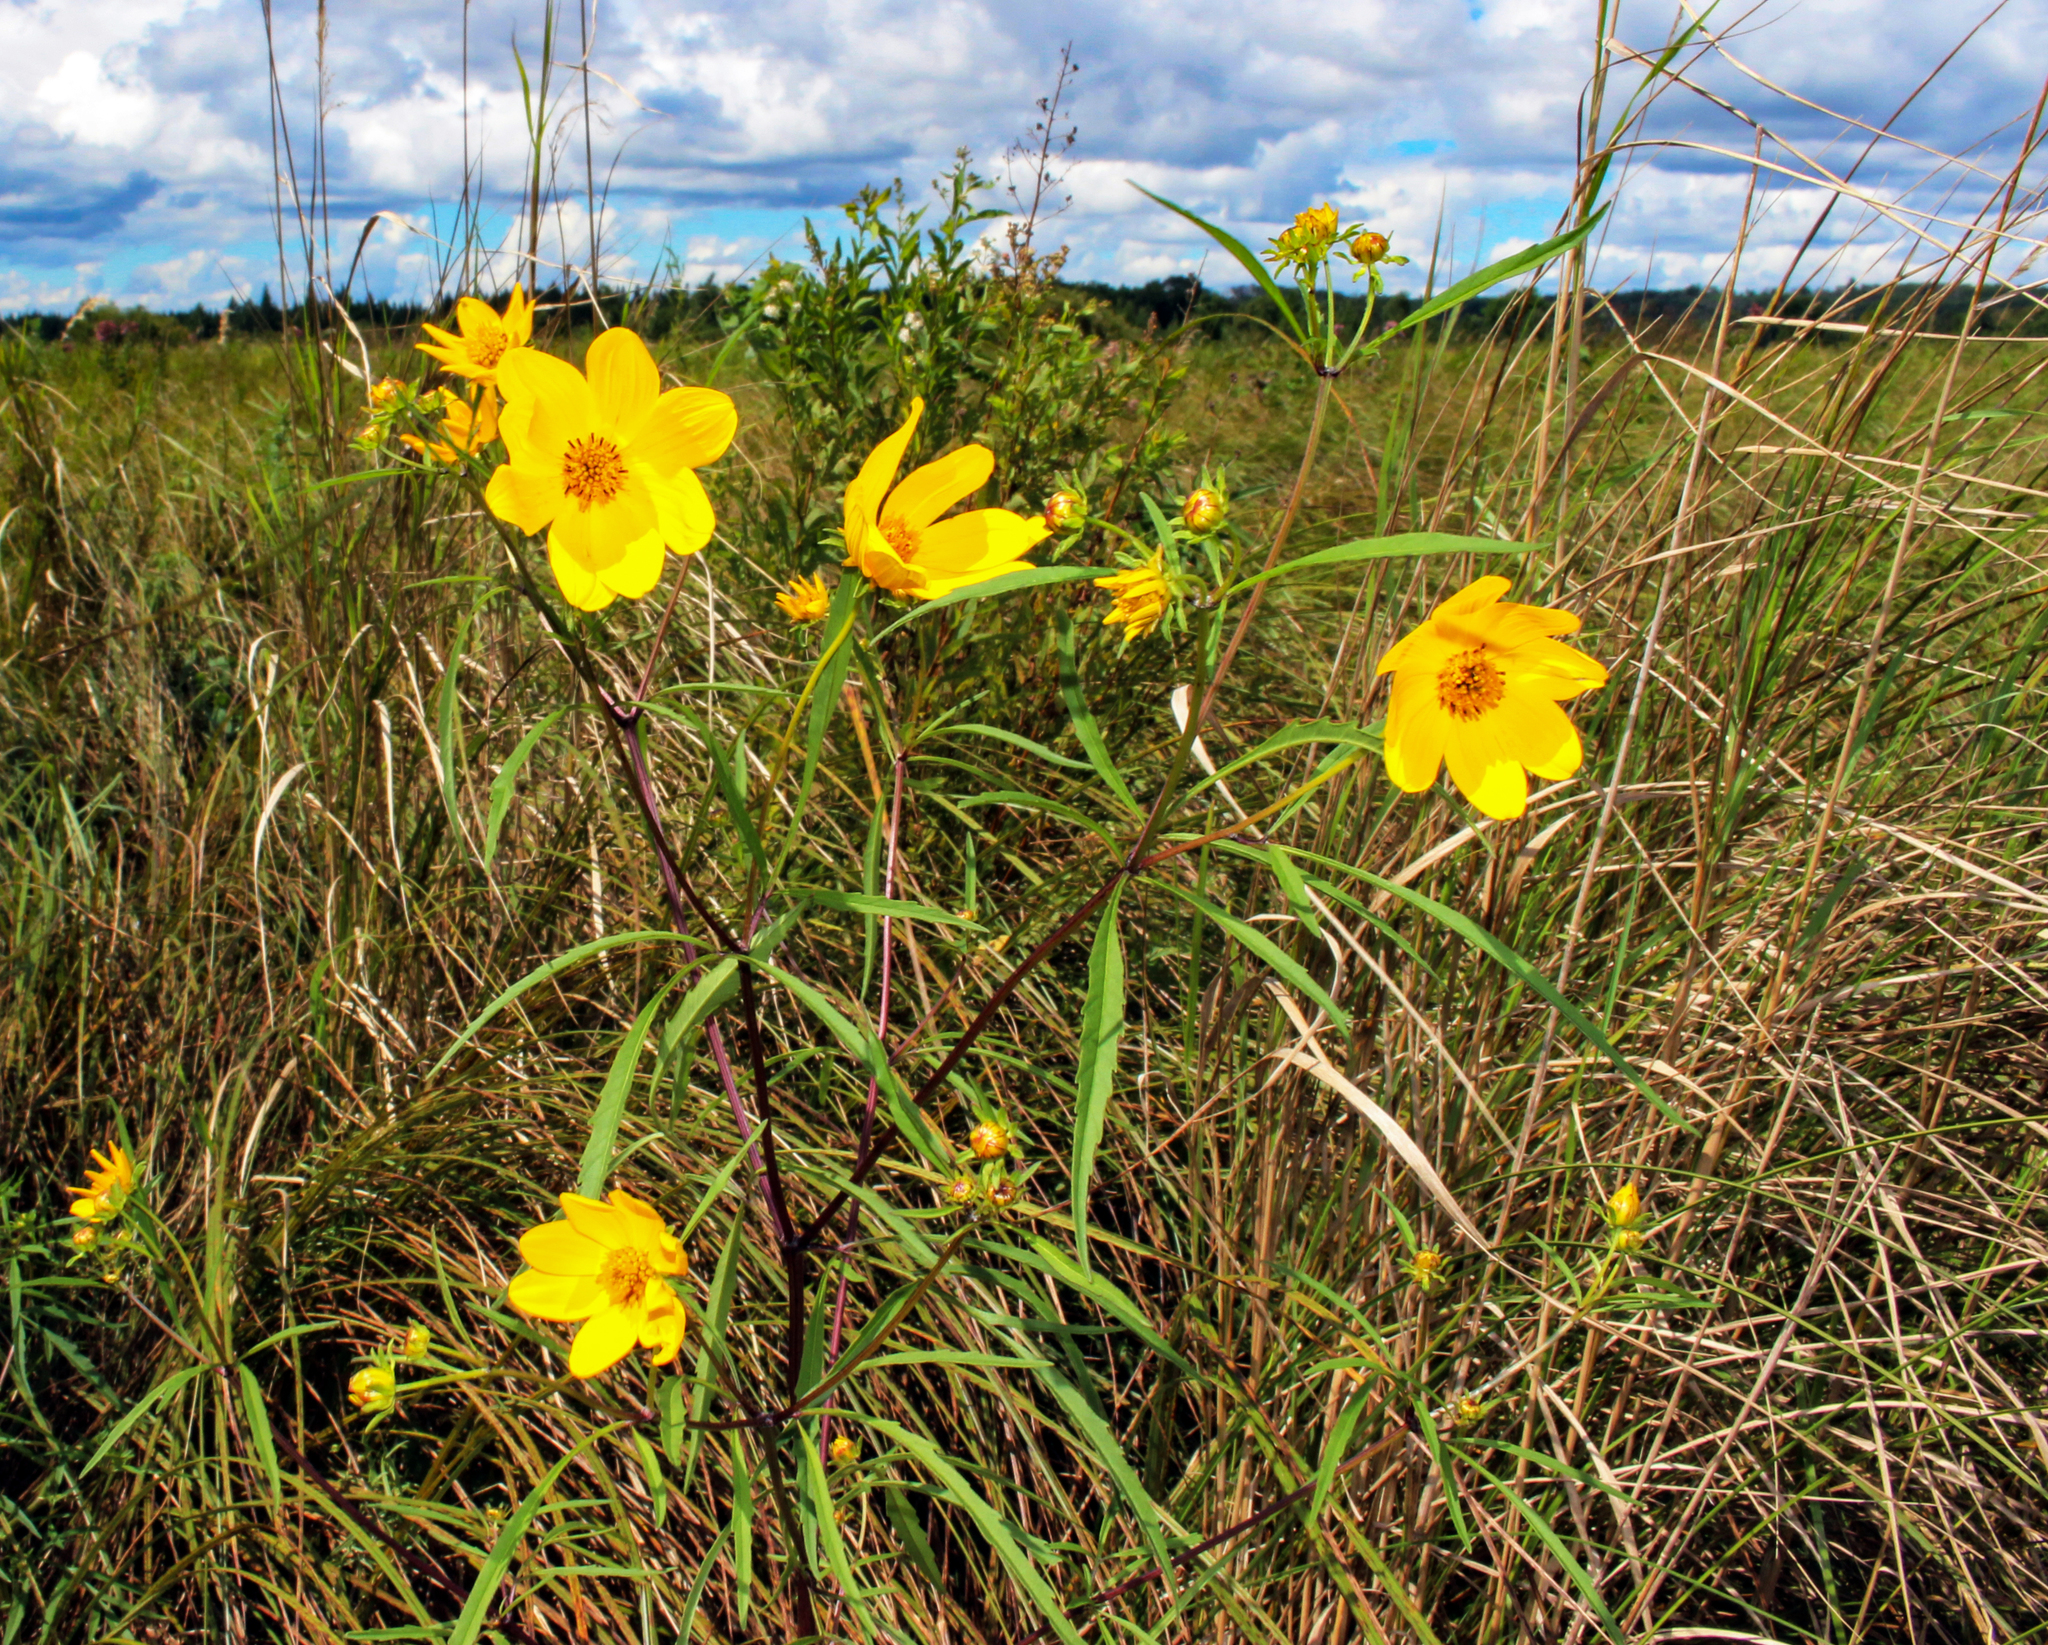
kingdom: Plantae
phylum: Tracheophyta
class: Magnoliopsida
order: Asterales
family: Asteraceae
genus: Bidens
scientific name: Bidens trichosperma
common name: Crowned beggarticks
